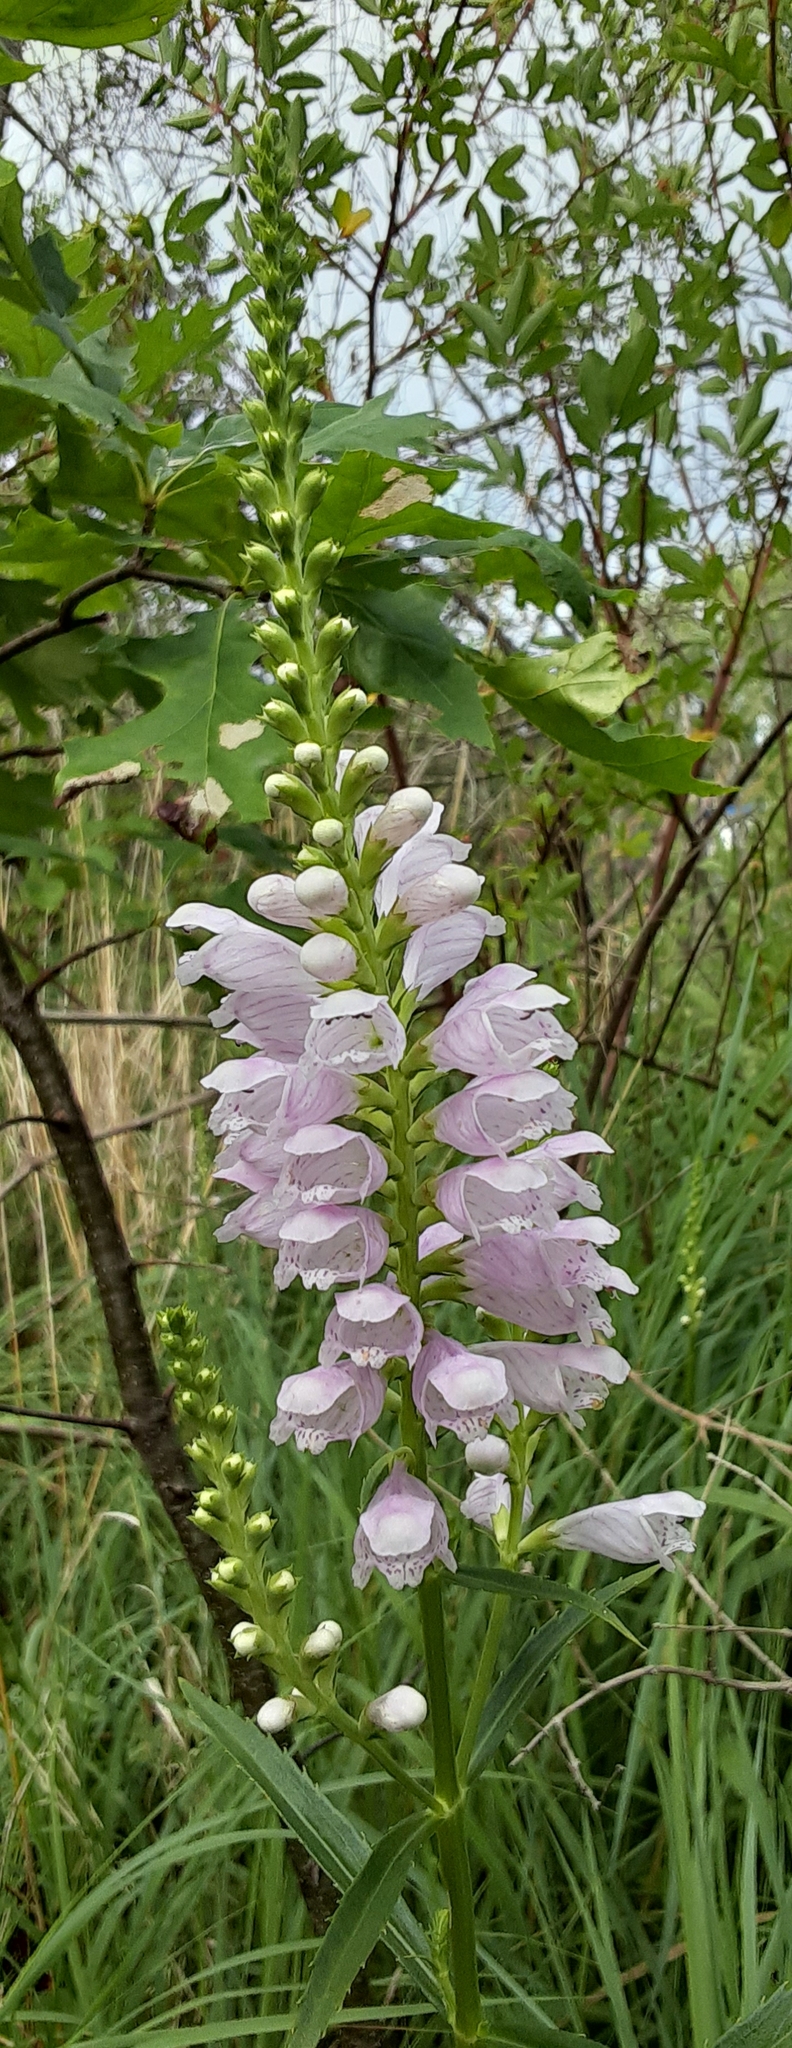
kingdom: Plantae
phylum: Tracheophyta
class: Magnoliopsida
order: Lamiales
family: Lamiaceae
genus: Physostegia
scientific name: Physostegia virginiana
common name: Obedient-plant
